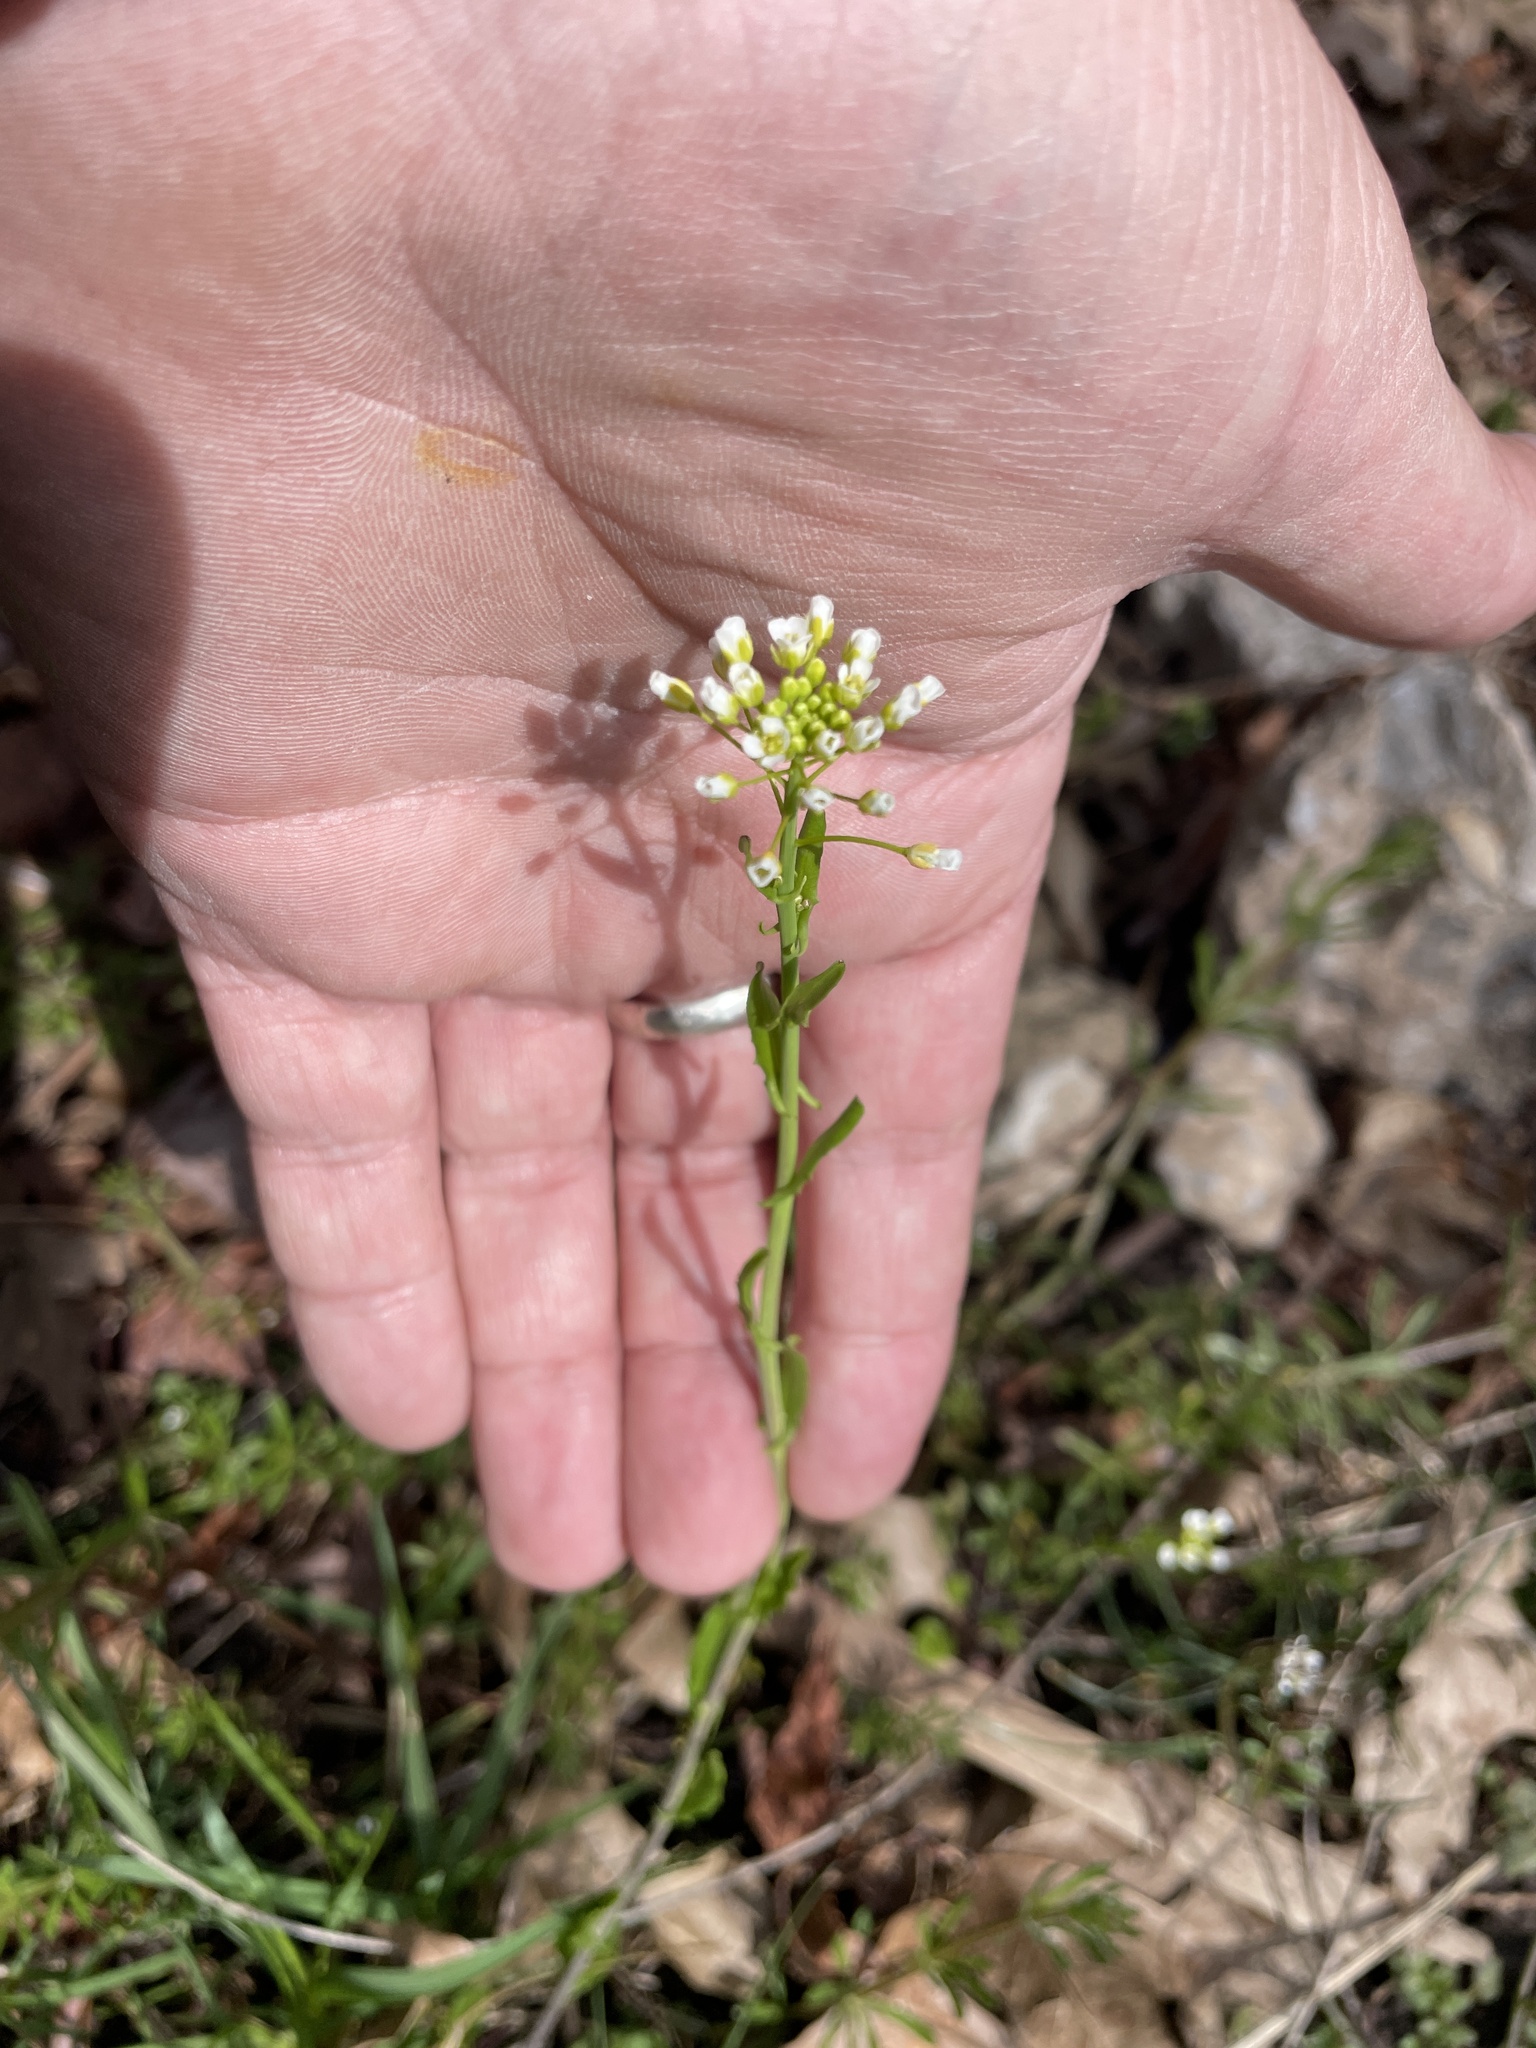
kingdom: Plantae
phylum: Tracheophyta
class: Magnoliopsida
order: Brassicales
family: Brassicaceae
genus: Mummenhoffia
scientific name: Mummenhoffia alliacea
